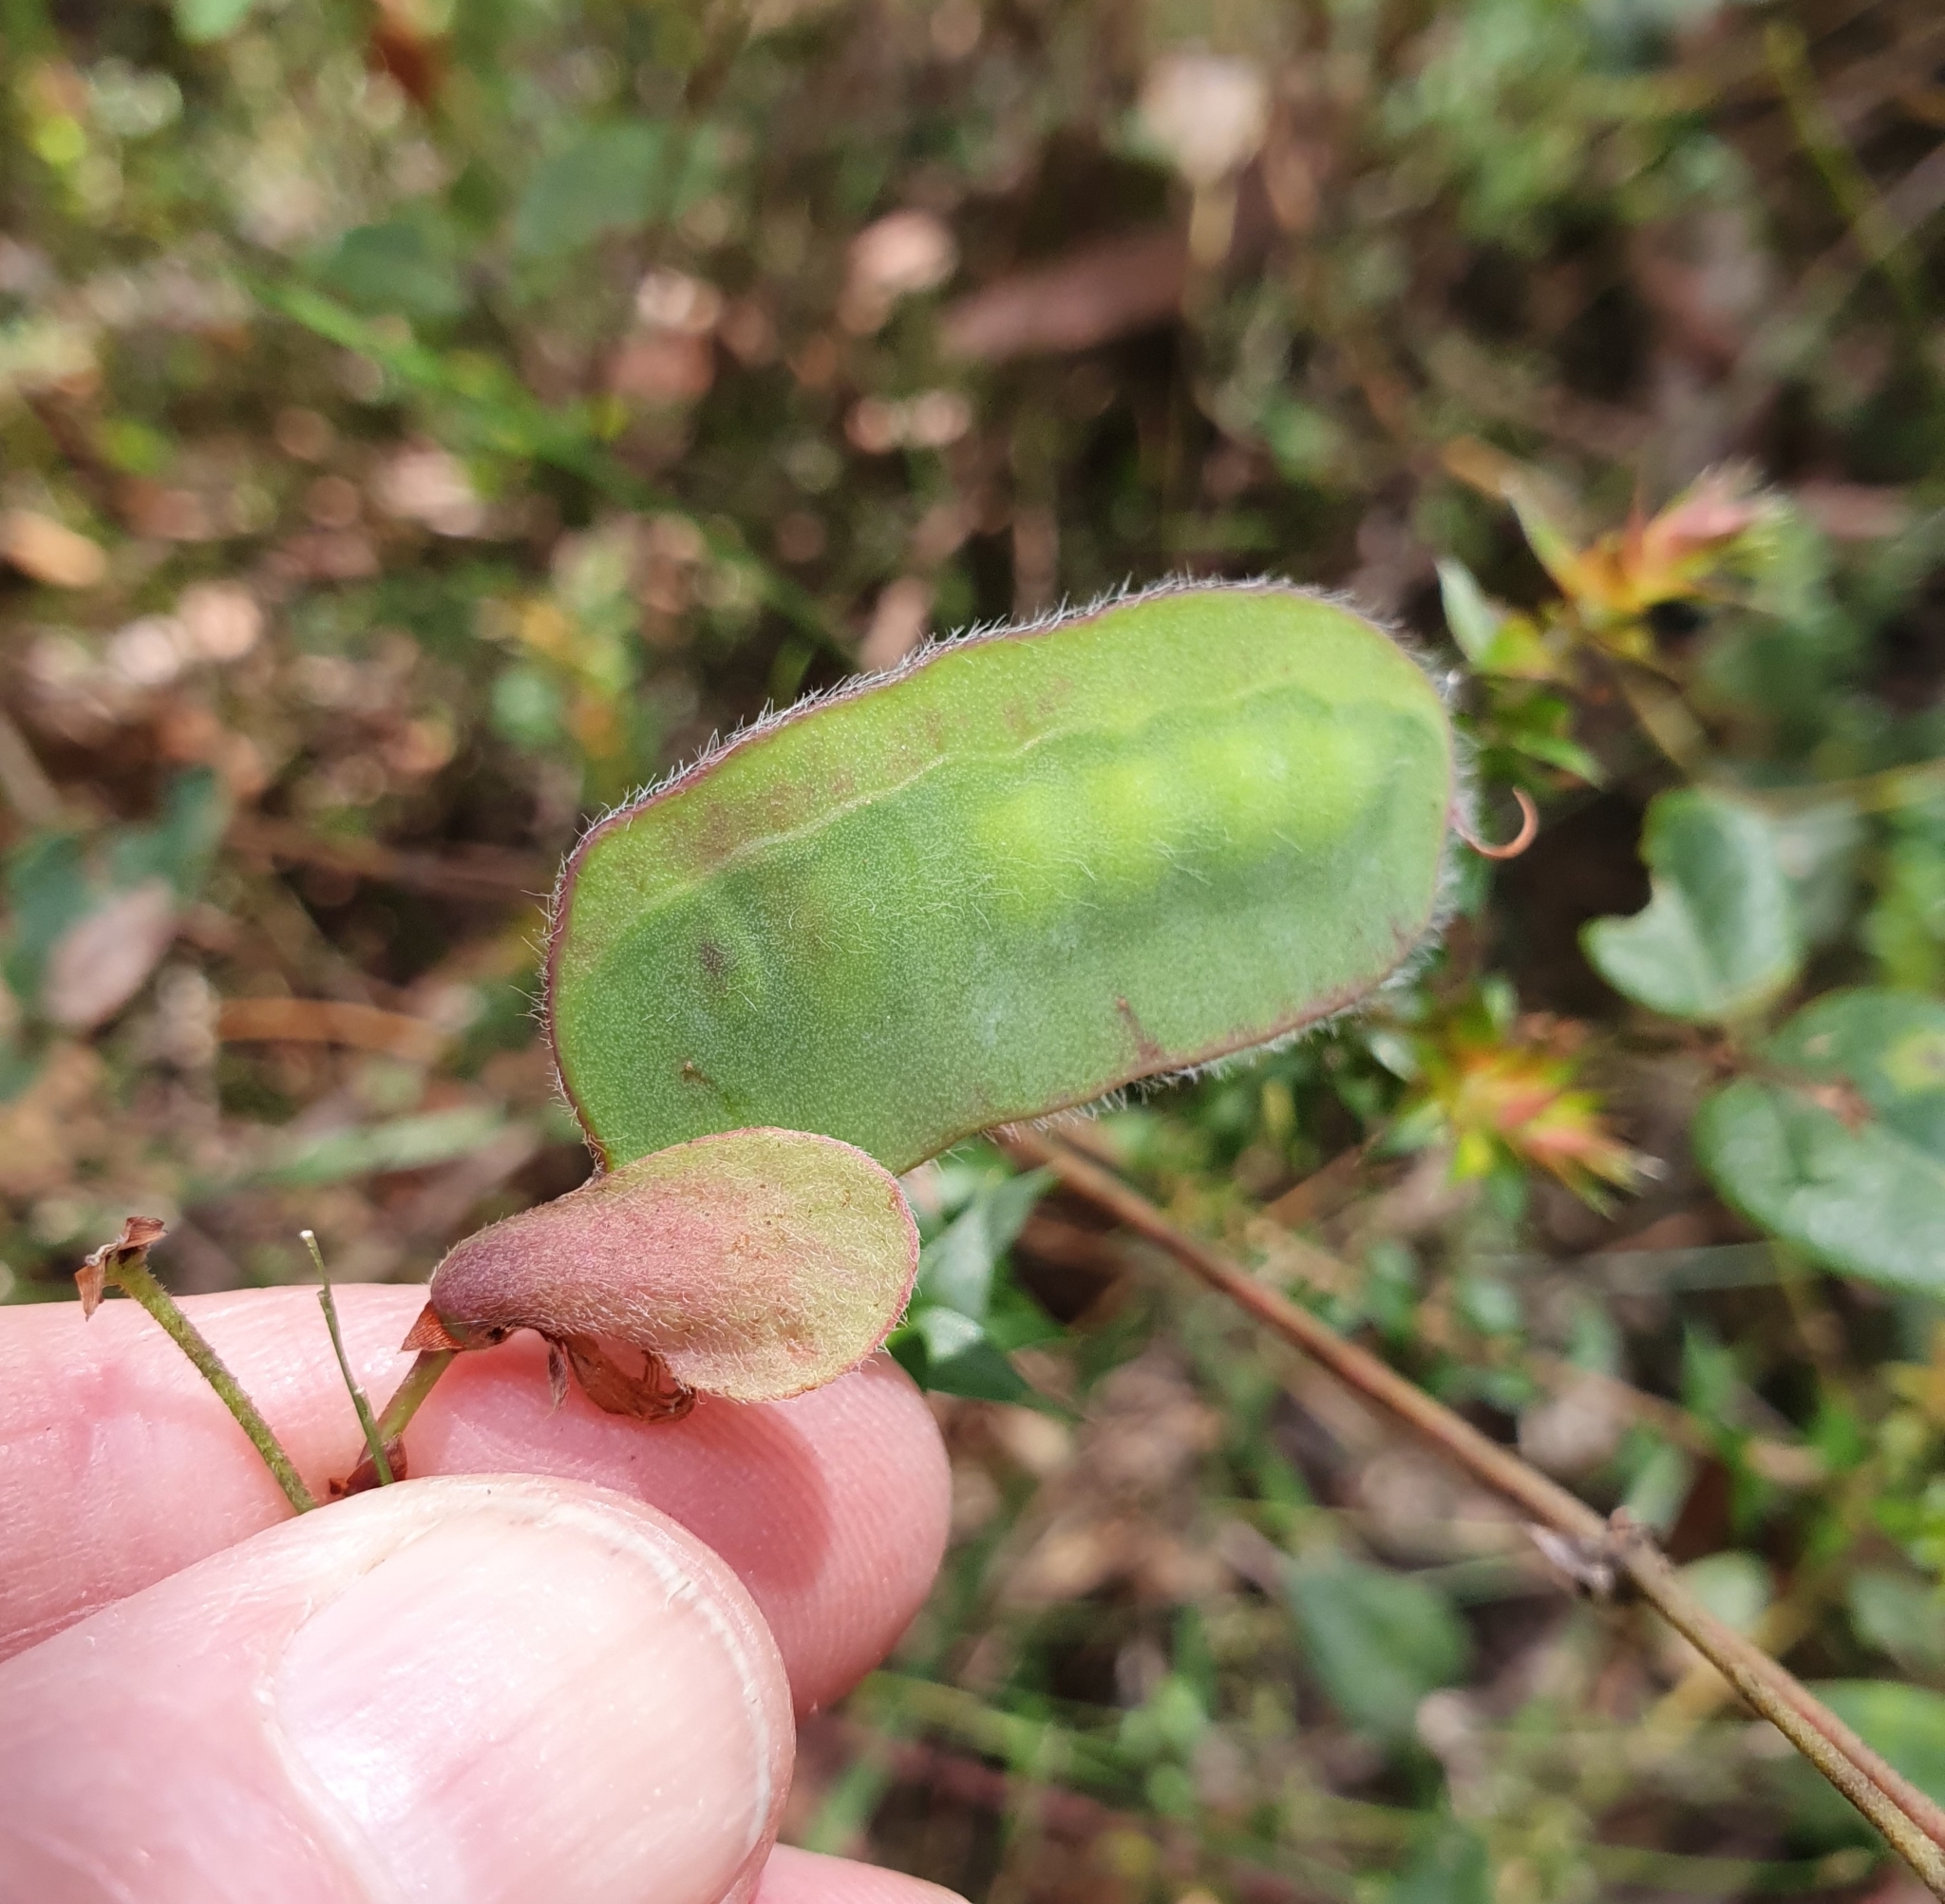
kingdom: Plantae
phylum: Tracheophyta
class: Magnoliopsida
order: Fabales
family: Fabaceae
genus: Platylobium
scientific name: Platylobium formosum
